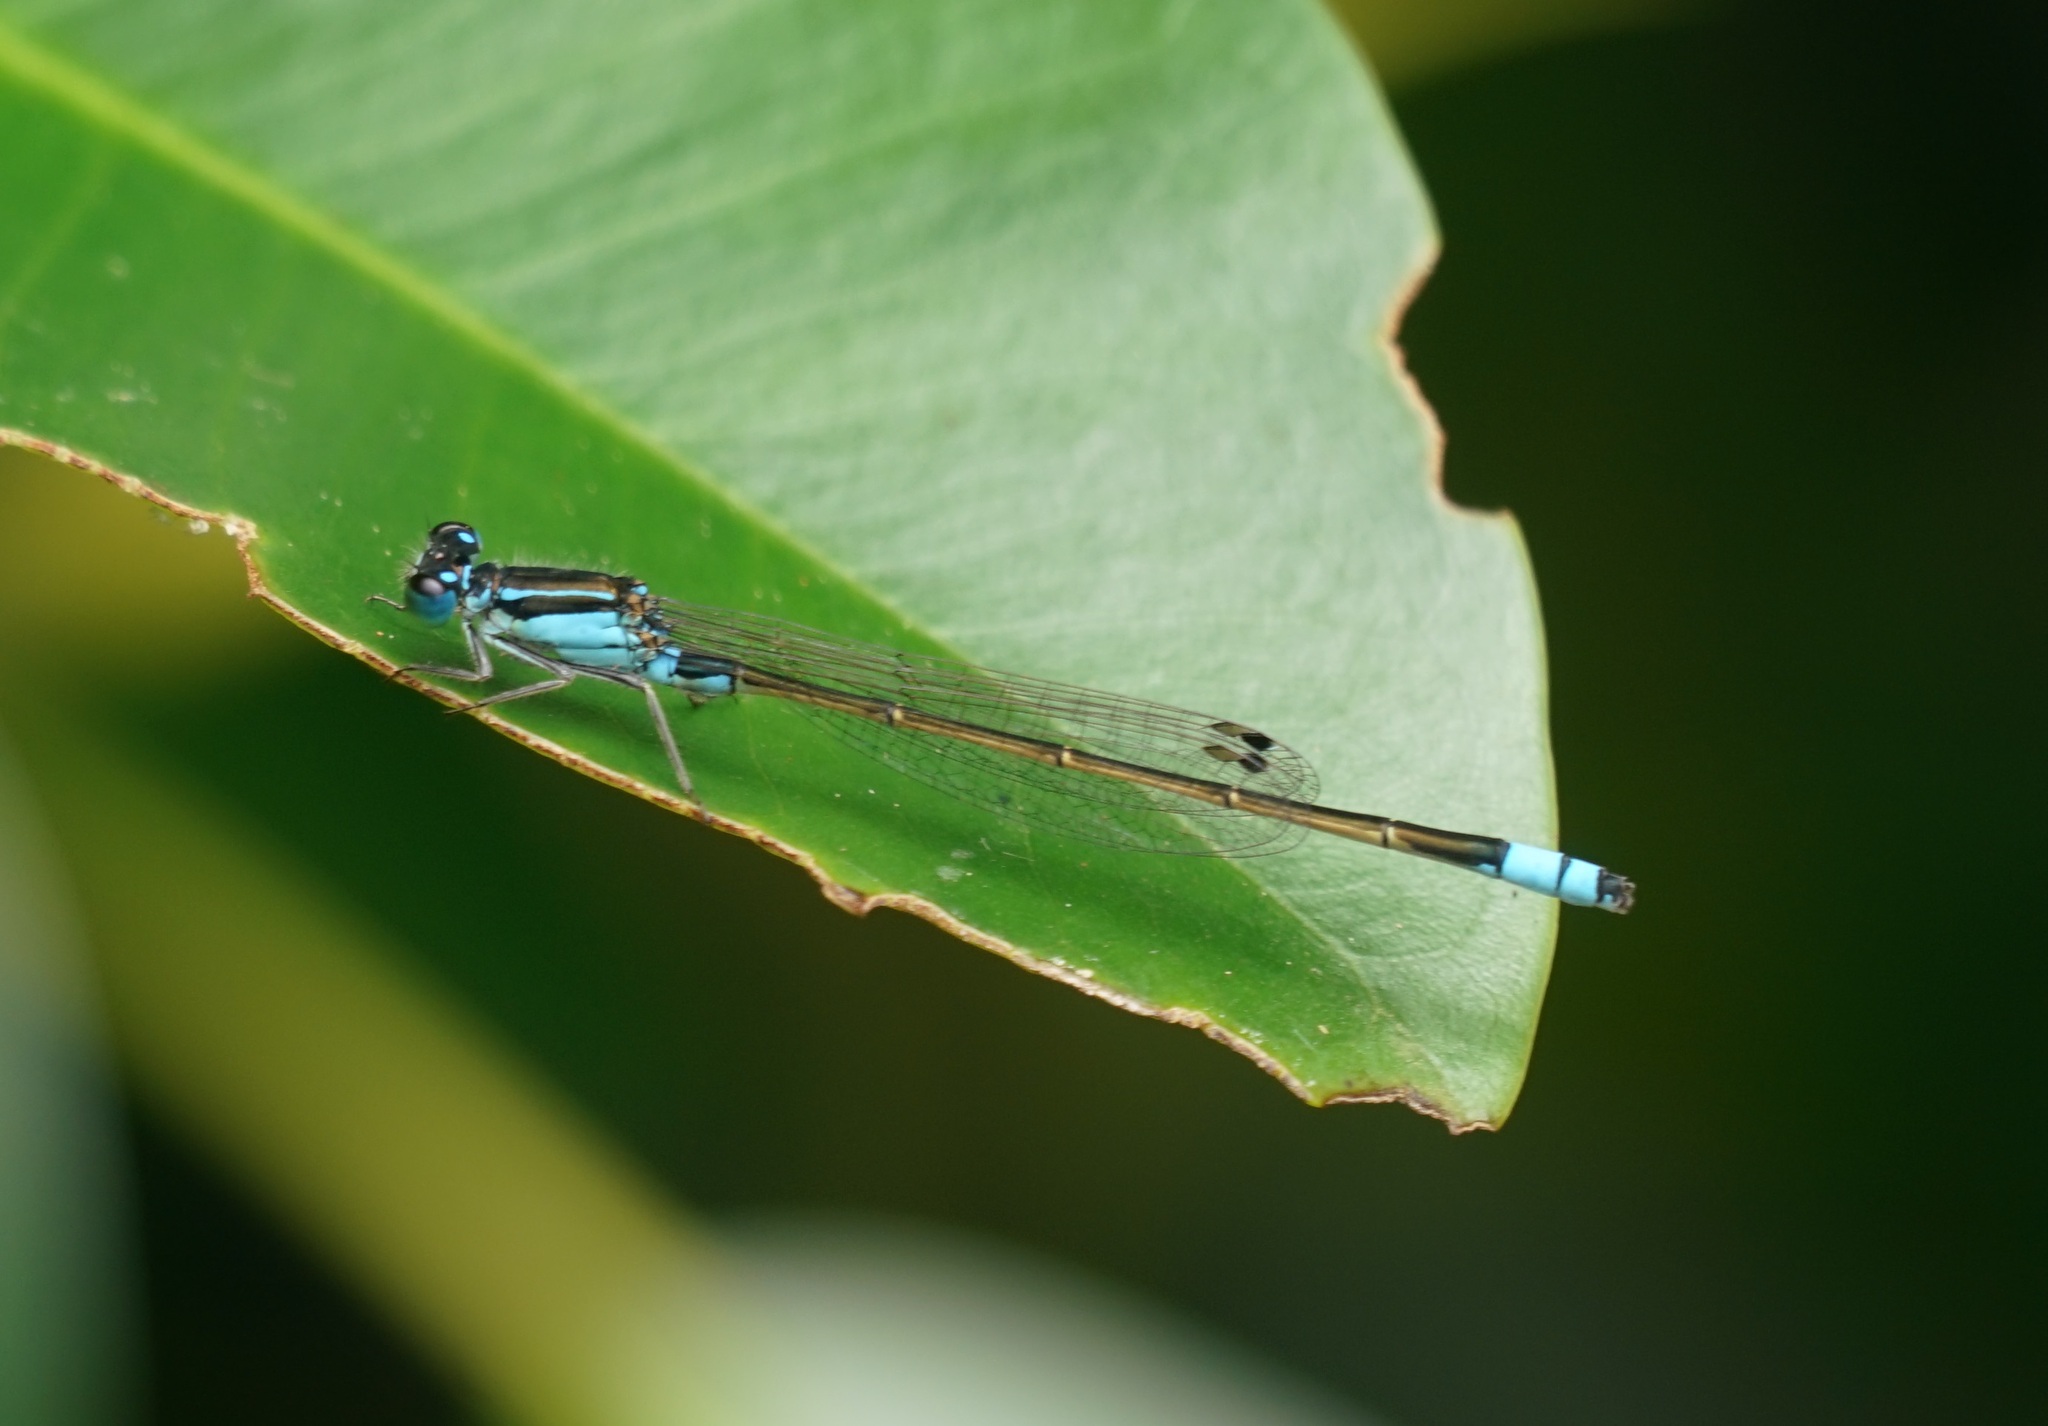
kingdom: Animalia
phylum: Arthropoda
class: Insecta
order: Odonata
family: Coenagrionidae
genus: Ischnura
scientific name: Ischnura heterosticta
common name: Common bluetail
